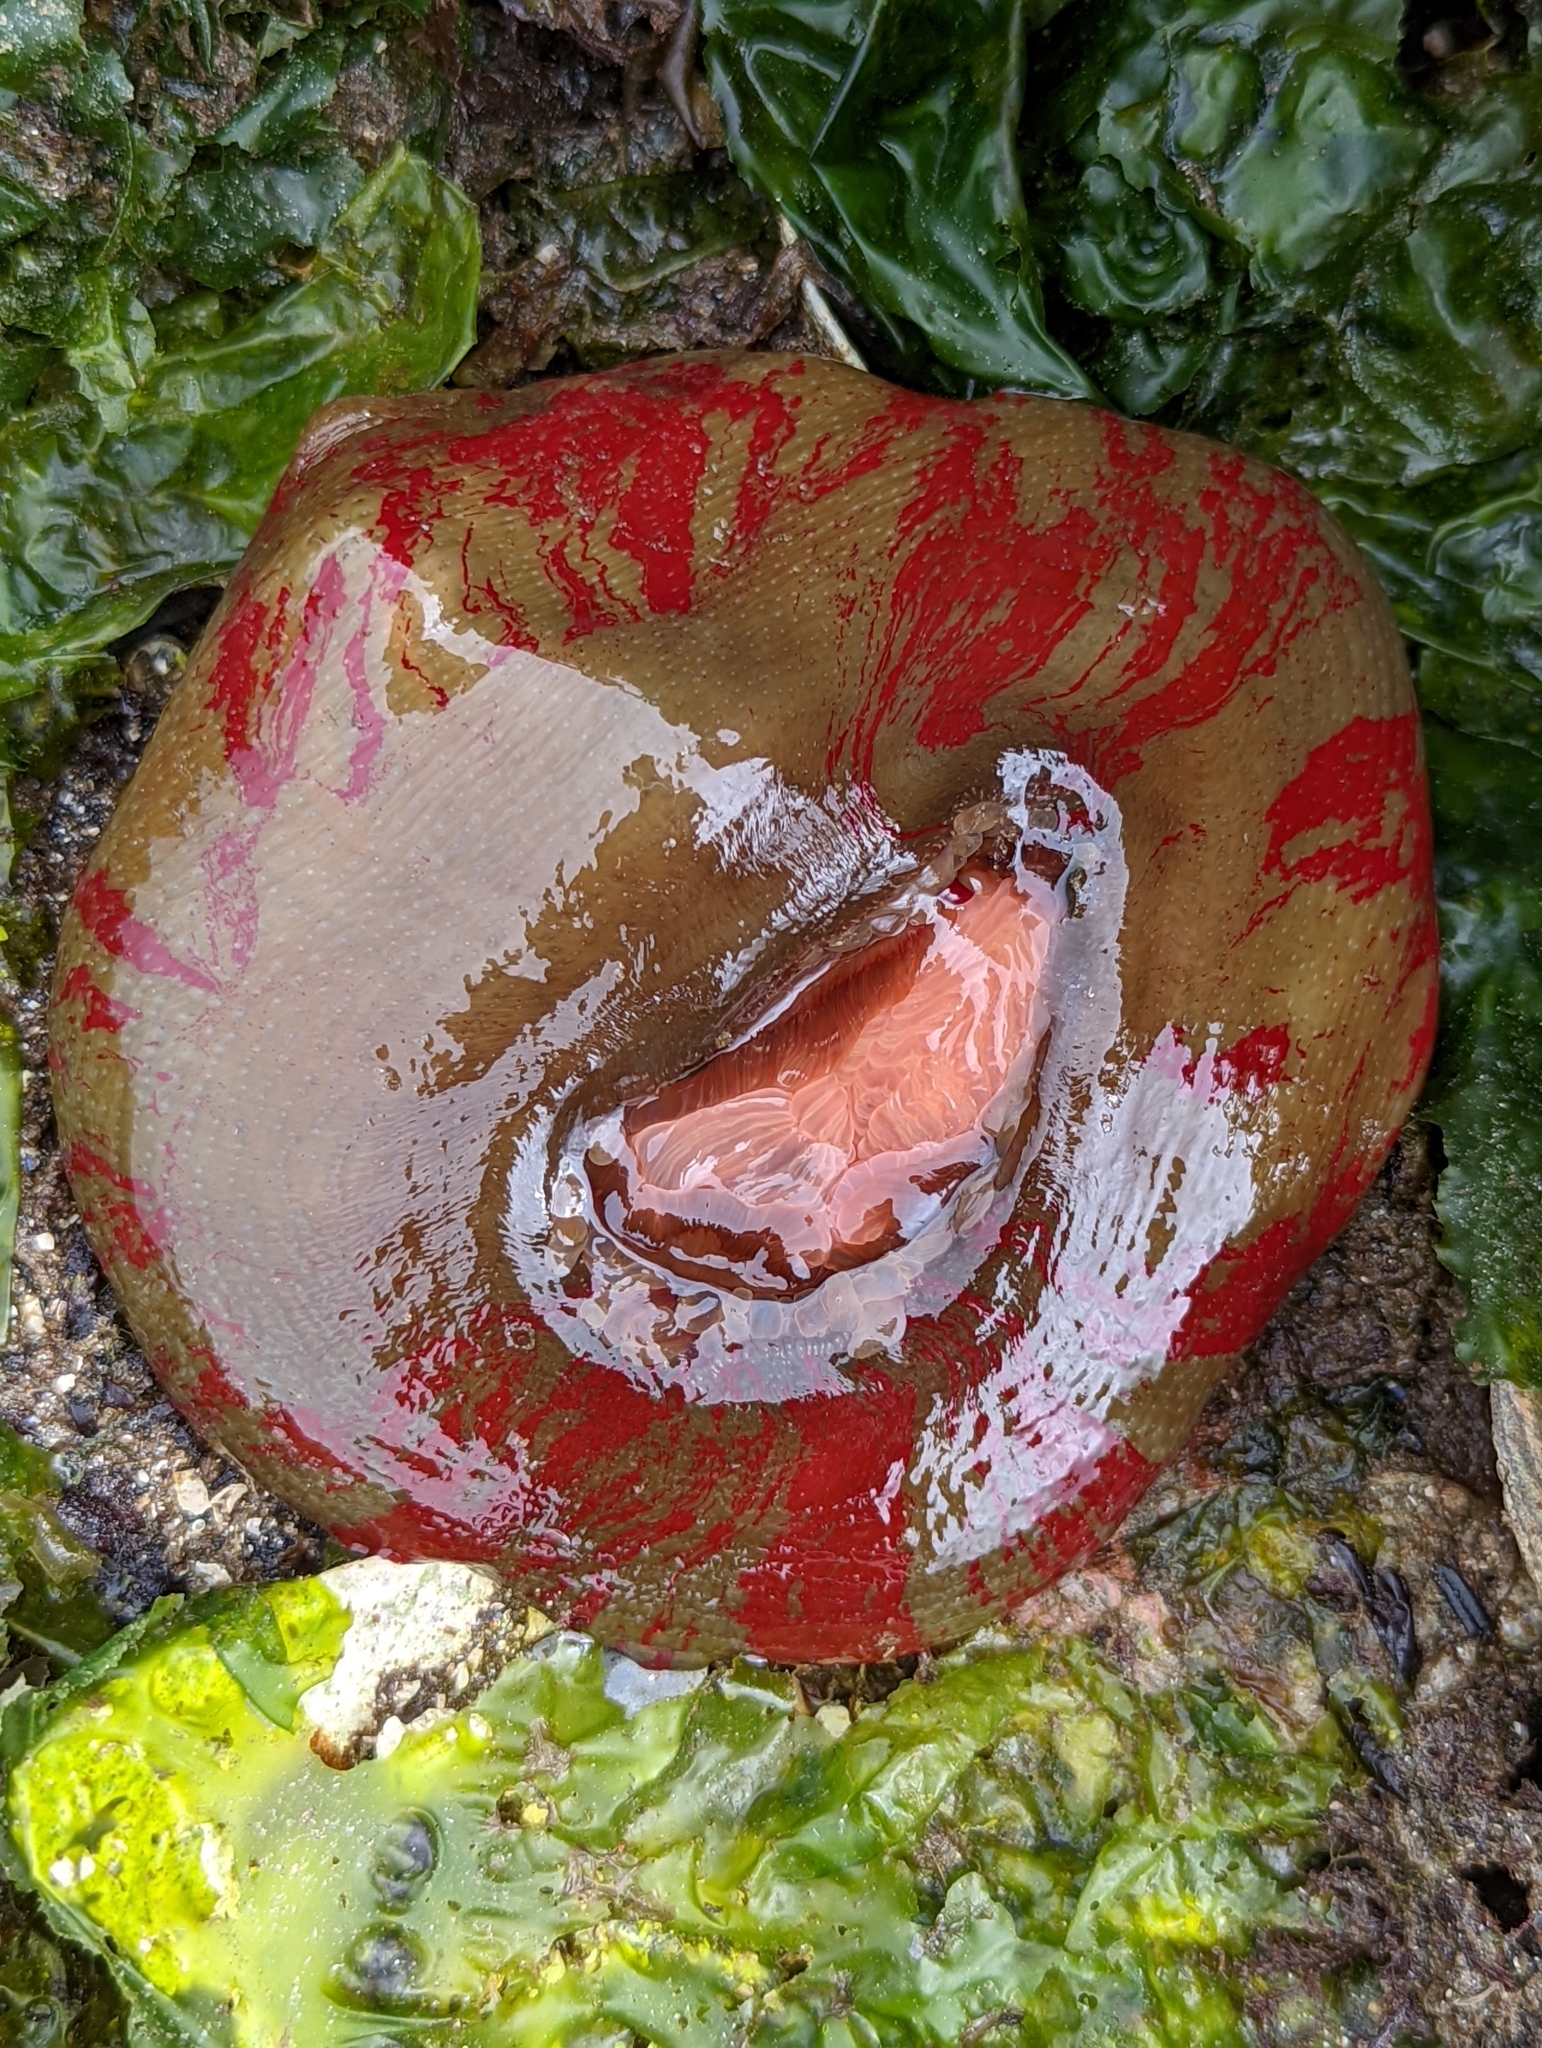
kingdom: Animalia
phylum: Cnidaria
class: Anthozoa
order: Actiniaria
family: Actiniidae
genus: Urticina
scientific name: Urticina grebelnyi
